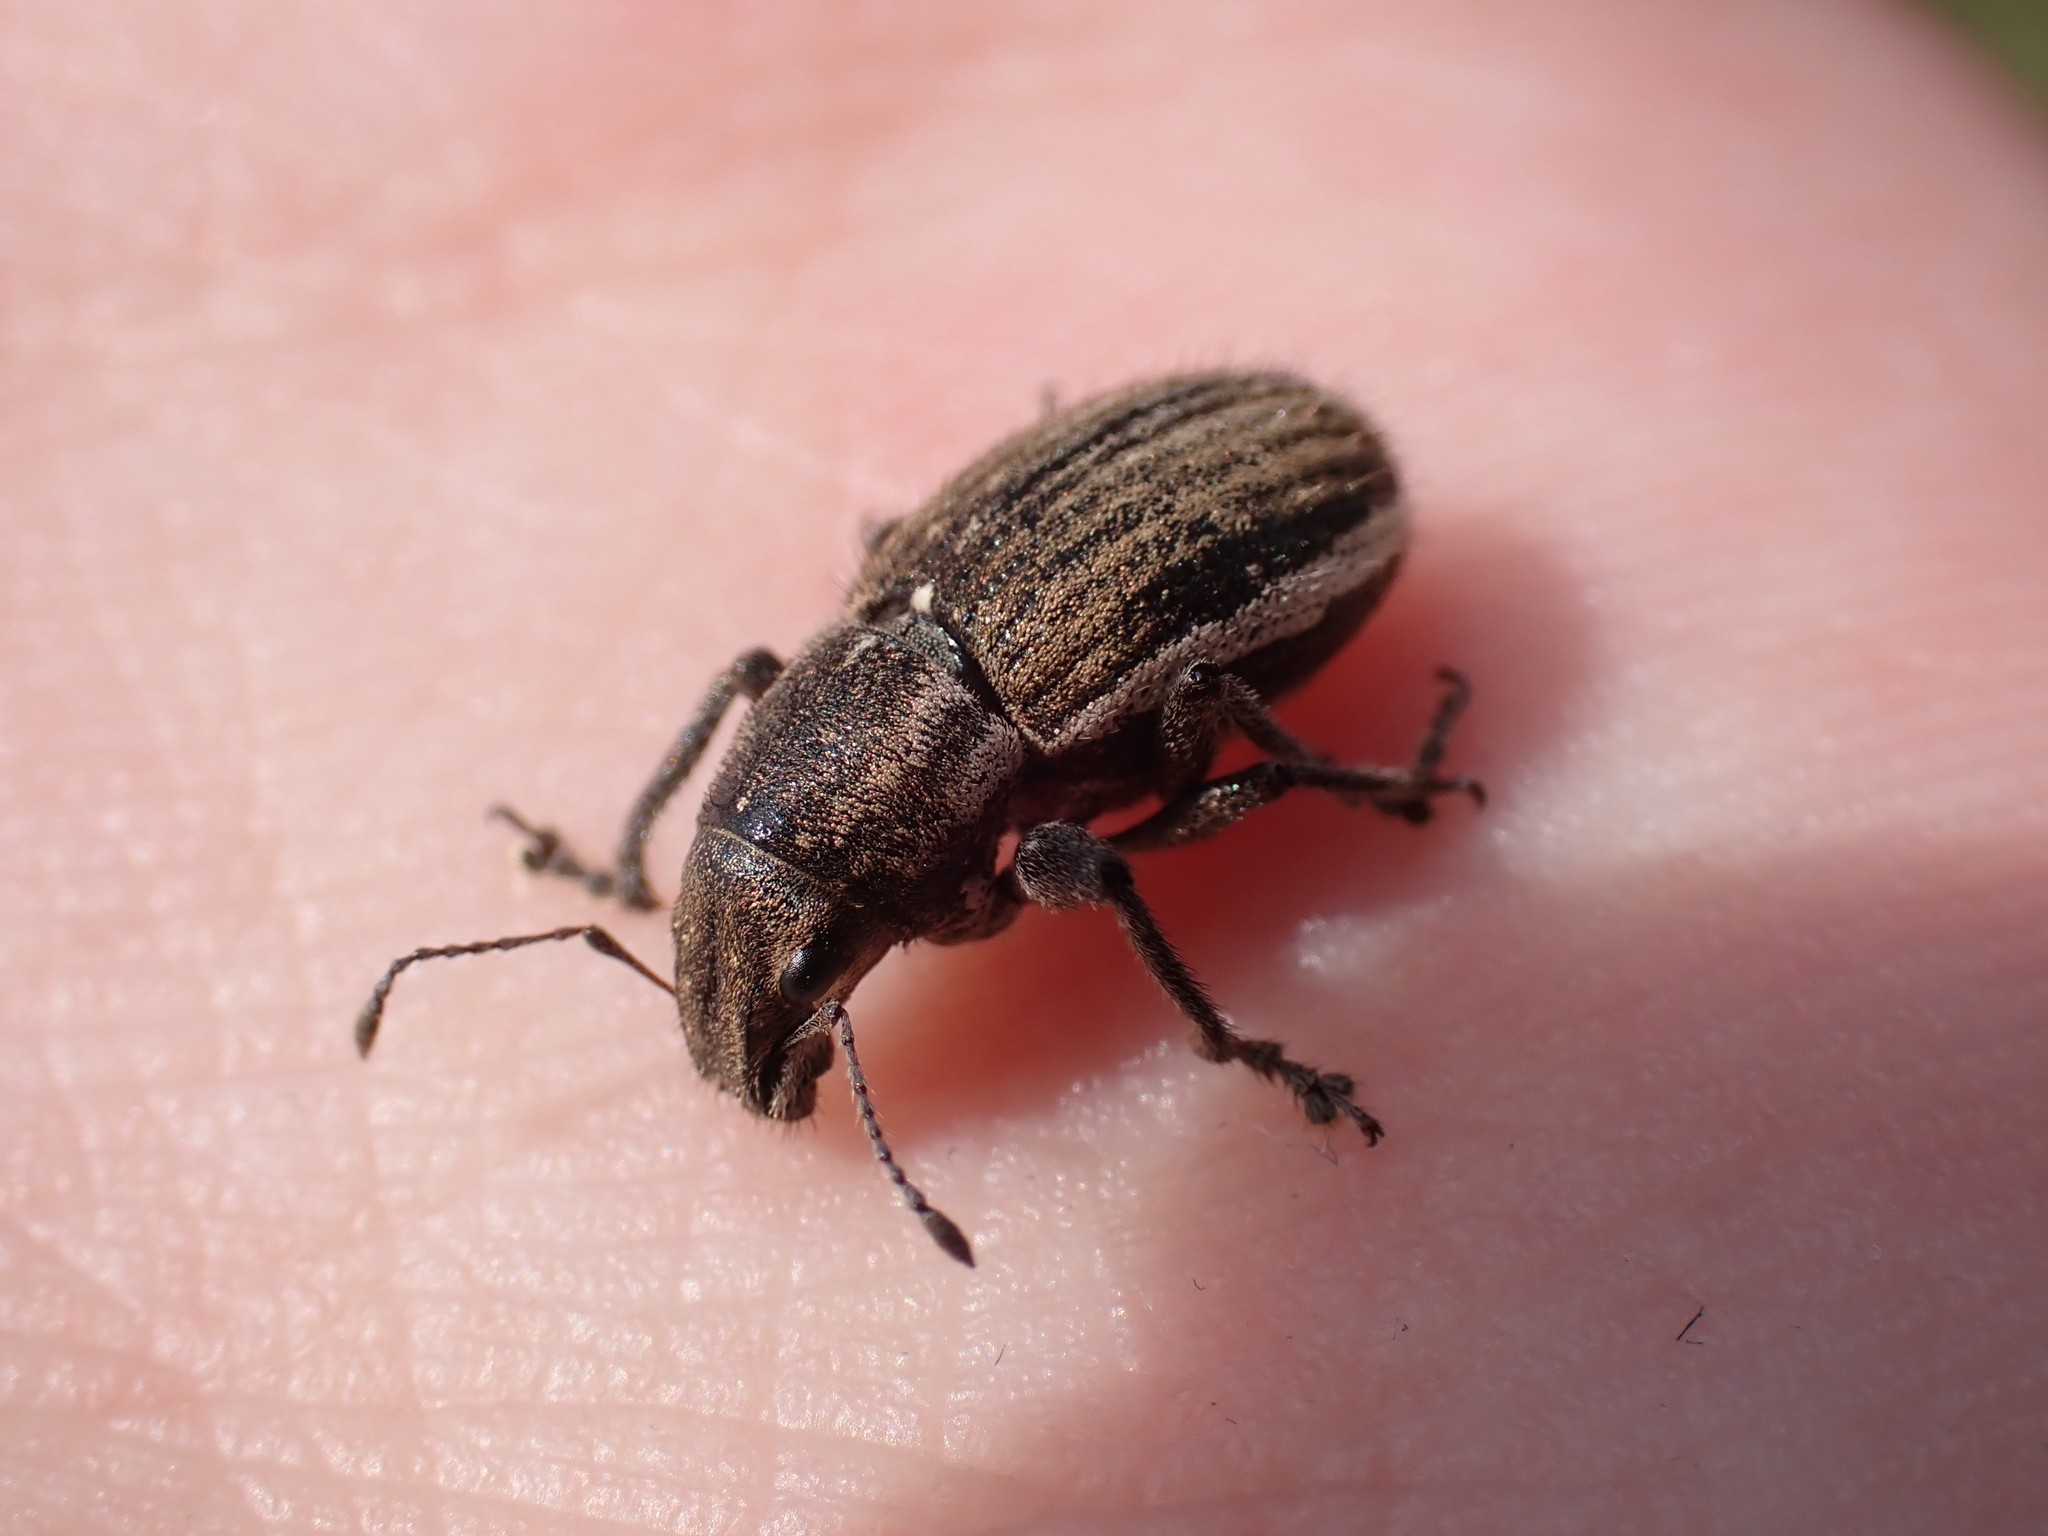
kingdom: Animalia
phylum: Arthropoda
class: Insecta
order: Coleoptera
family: Curculionidae
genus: Naupactus
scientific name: Naupactus leucoloma
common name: Whitefringed beetle
